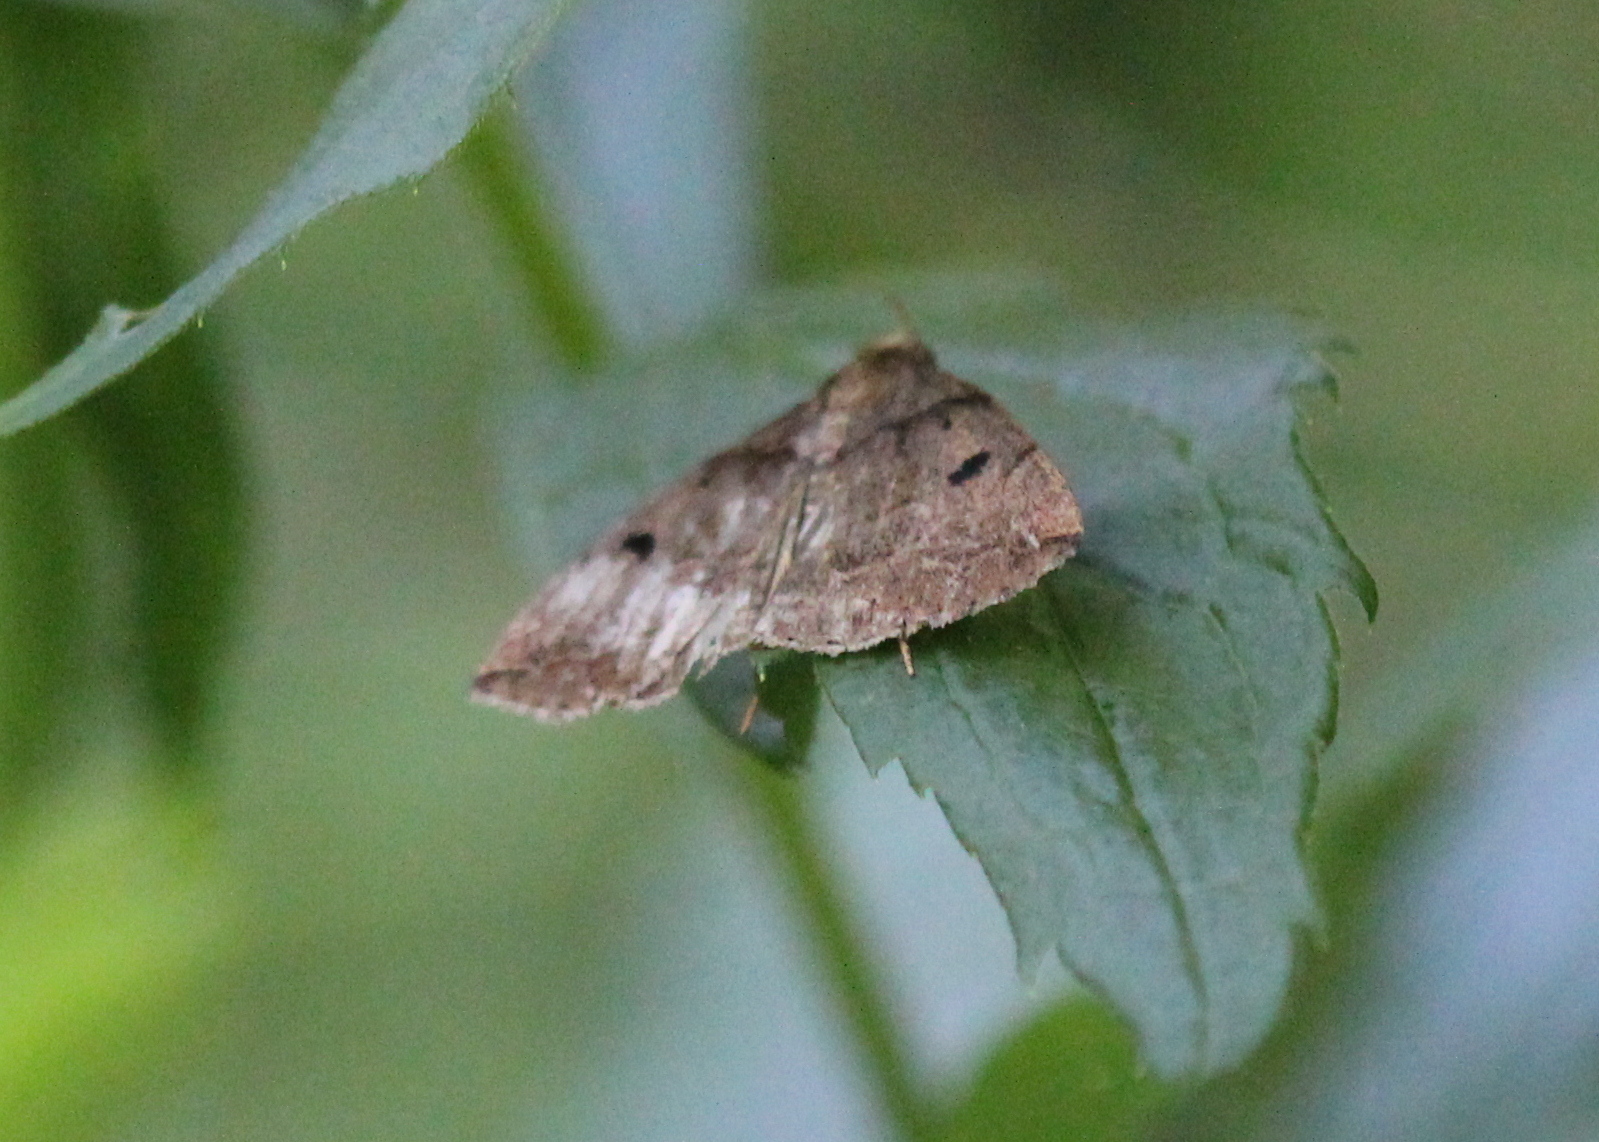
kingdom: Animalia
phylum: Arthropoda
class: Insecta
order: Lepidoptera
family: Erebidae
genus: Zanclognatha
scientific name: Zanclognatha laevigata
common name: Variable fan-foot
